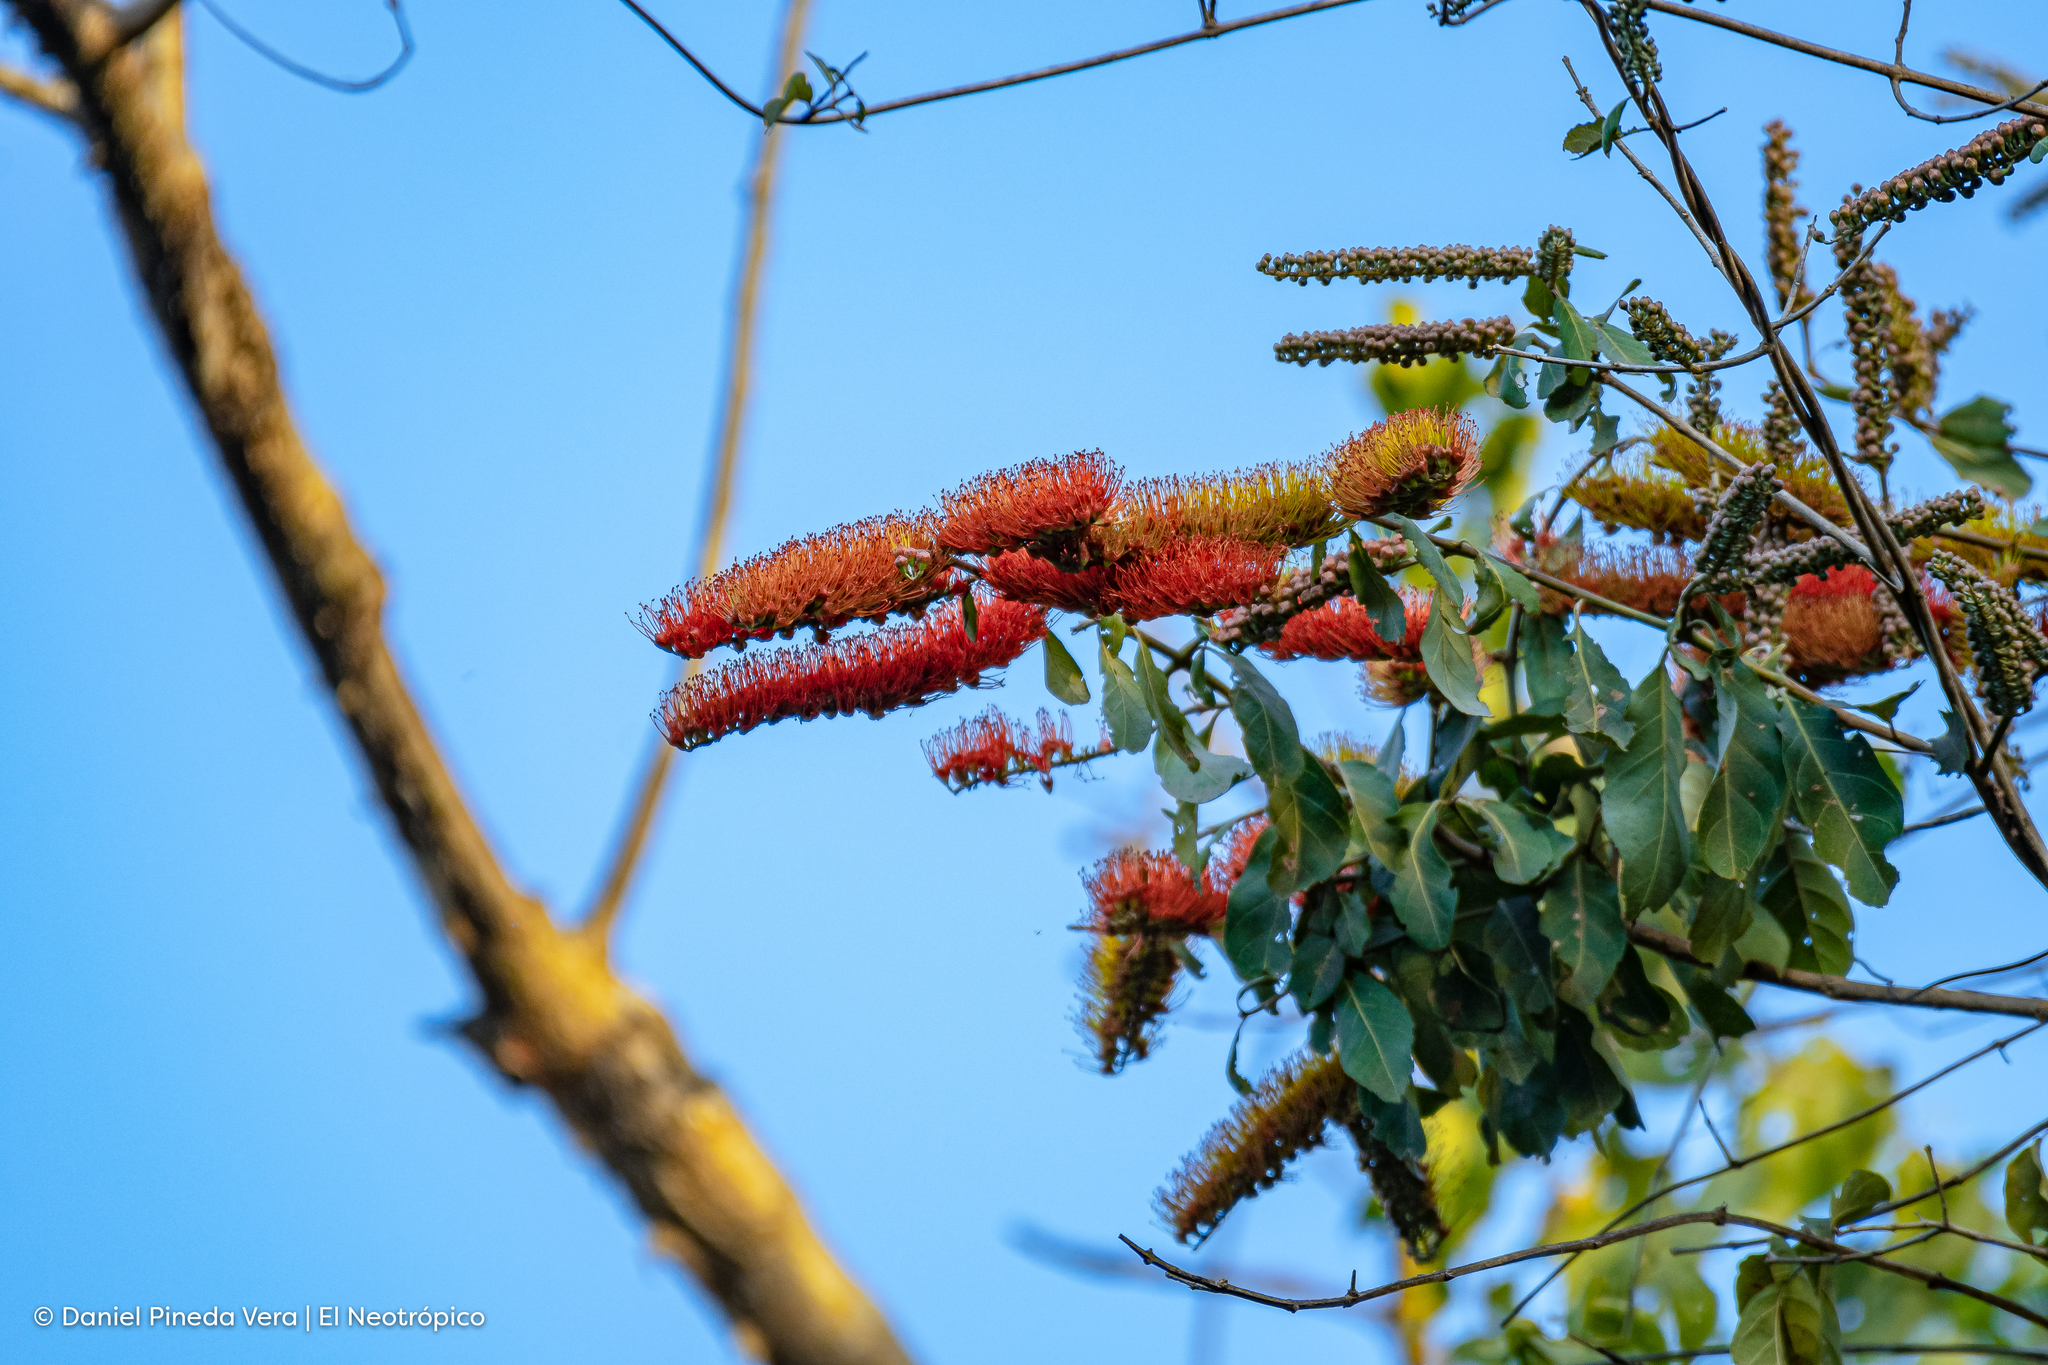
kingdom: Plantae
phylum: Tracheophyta
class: Magnoliopsida
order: Myrtales
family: Combretaceae
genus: Combretum
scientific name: Combretum farinosum
